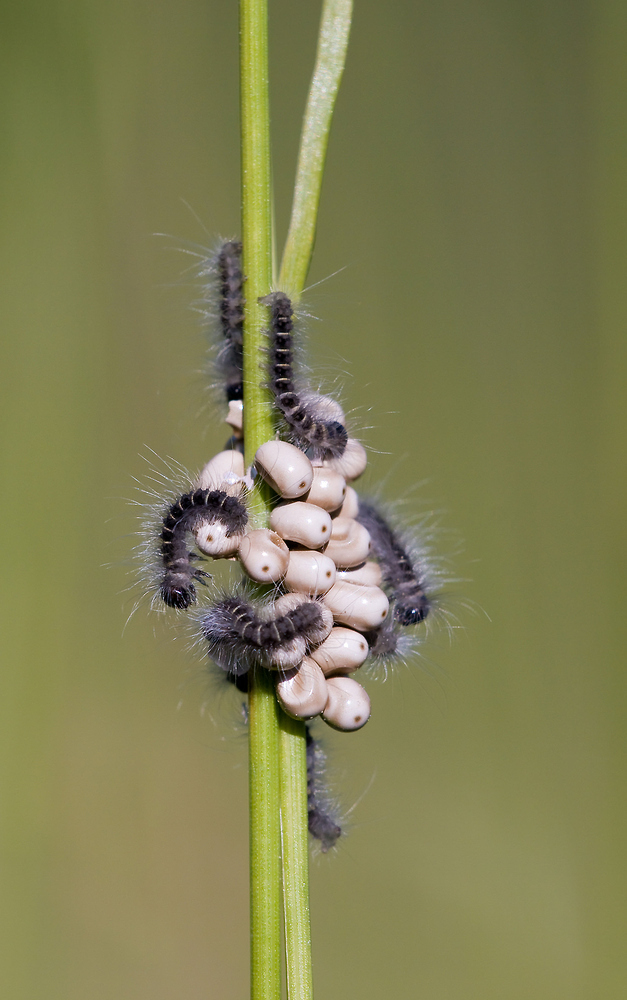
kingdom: Animalia
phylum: Arthropoda
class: Insecta
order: Lepidoptera
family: Lasiocampidae
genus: Macrothylacia
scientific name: Macrothylacia rubi
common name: Fox moth
